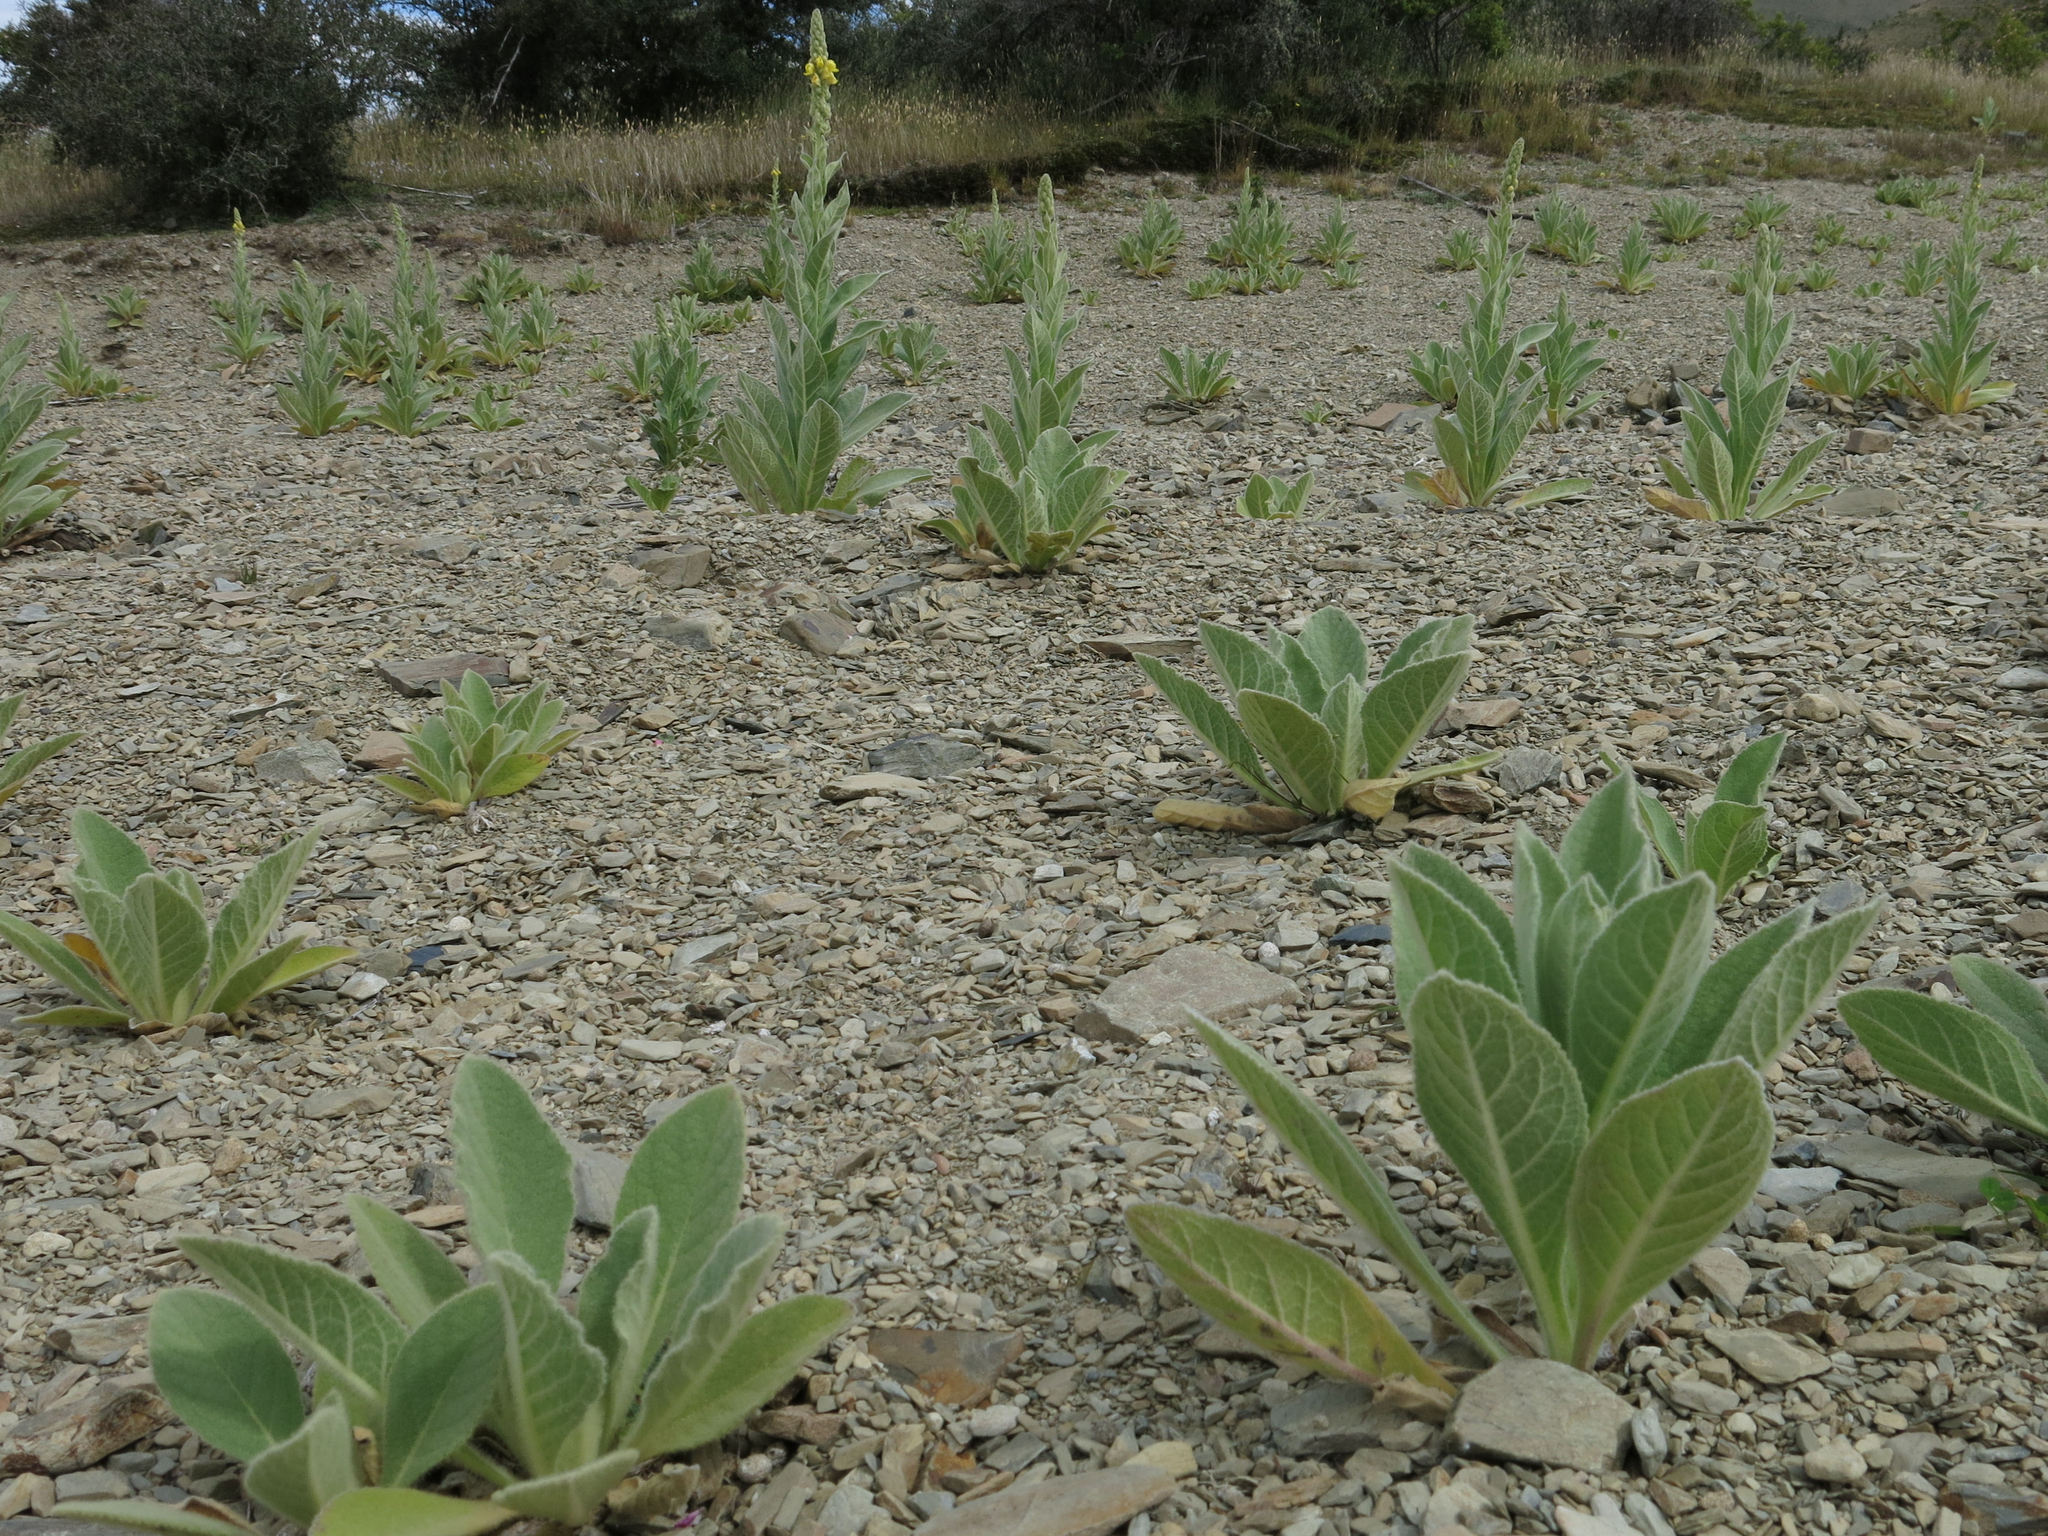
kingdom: Plantae
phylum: Tracheophyta
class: Magnoliopsida
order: Lamiales
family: Scrophulariaceae
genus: Verbascum
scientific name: Verbascum thapsus
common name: Common mullein
